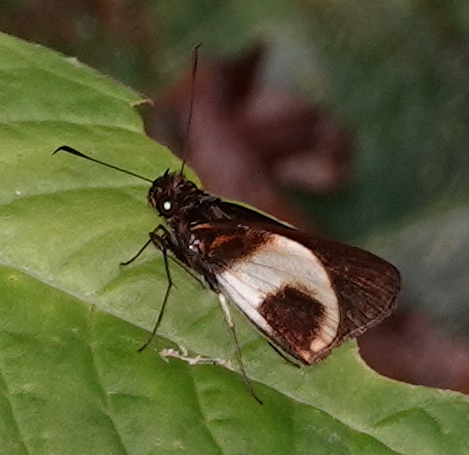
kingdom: Animalia
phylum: Arthropoda
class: Insecta
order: Lepidoptera
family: Hesperiidae
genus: Mnestheus
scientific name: Mnestheus ittona
